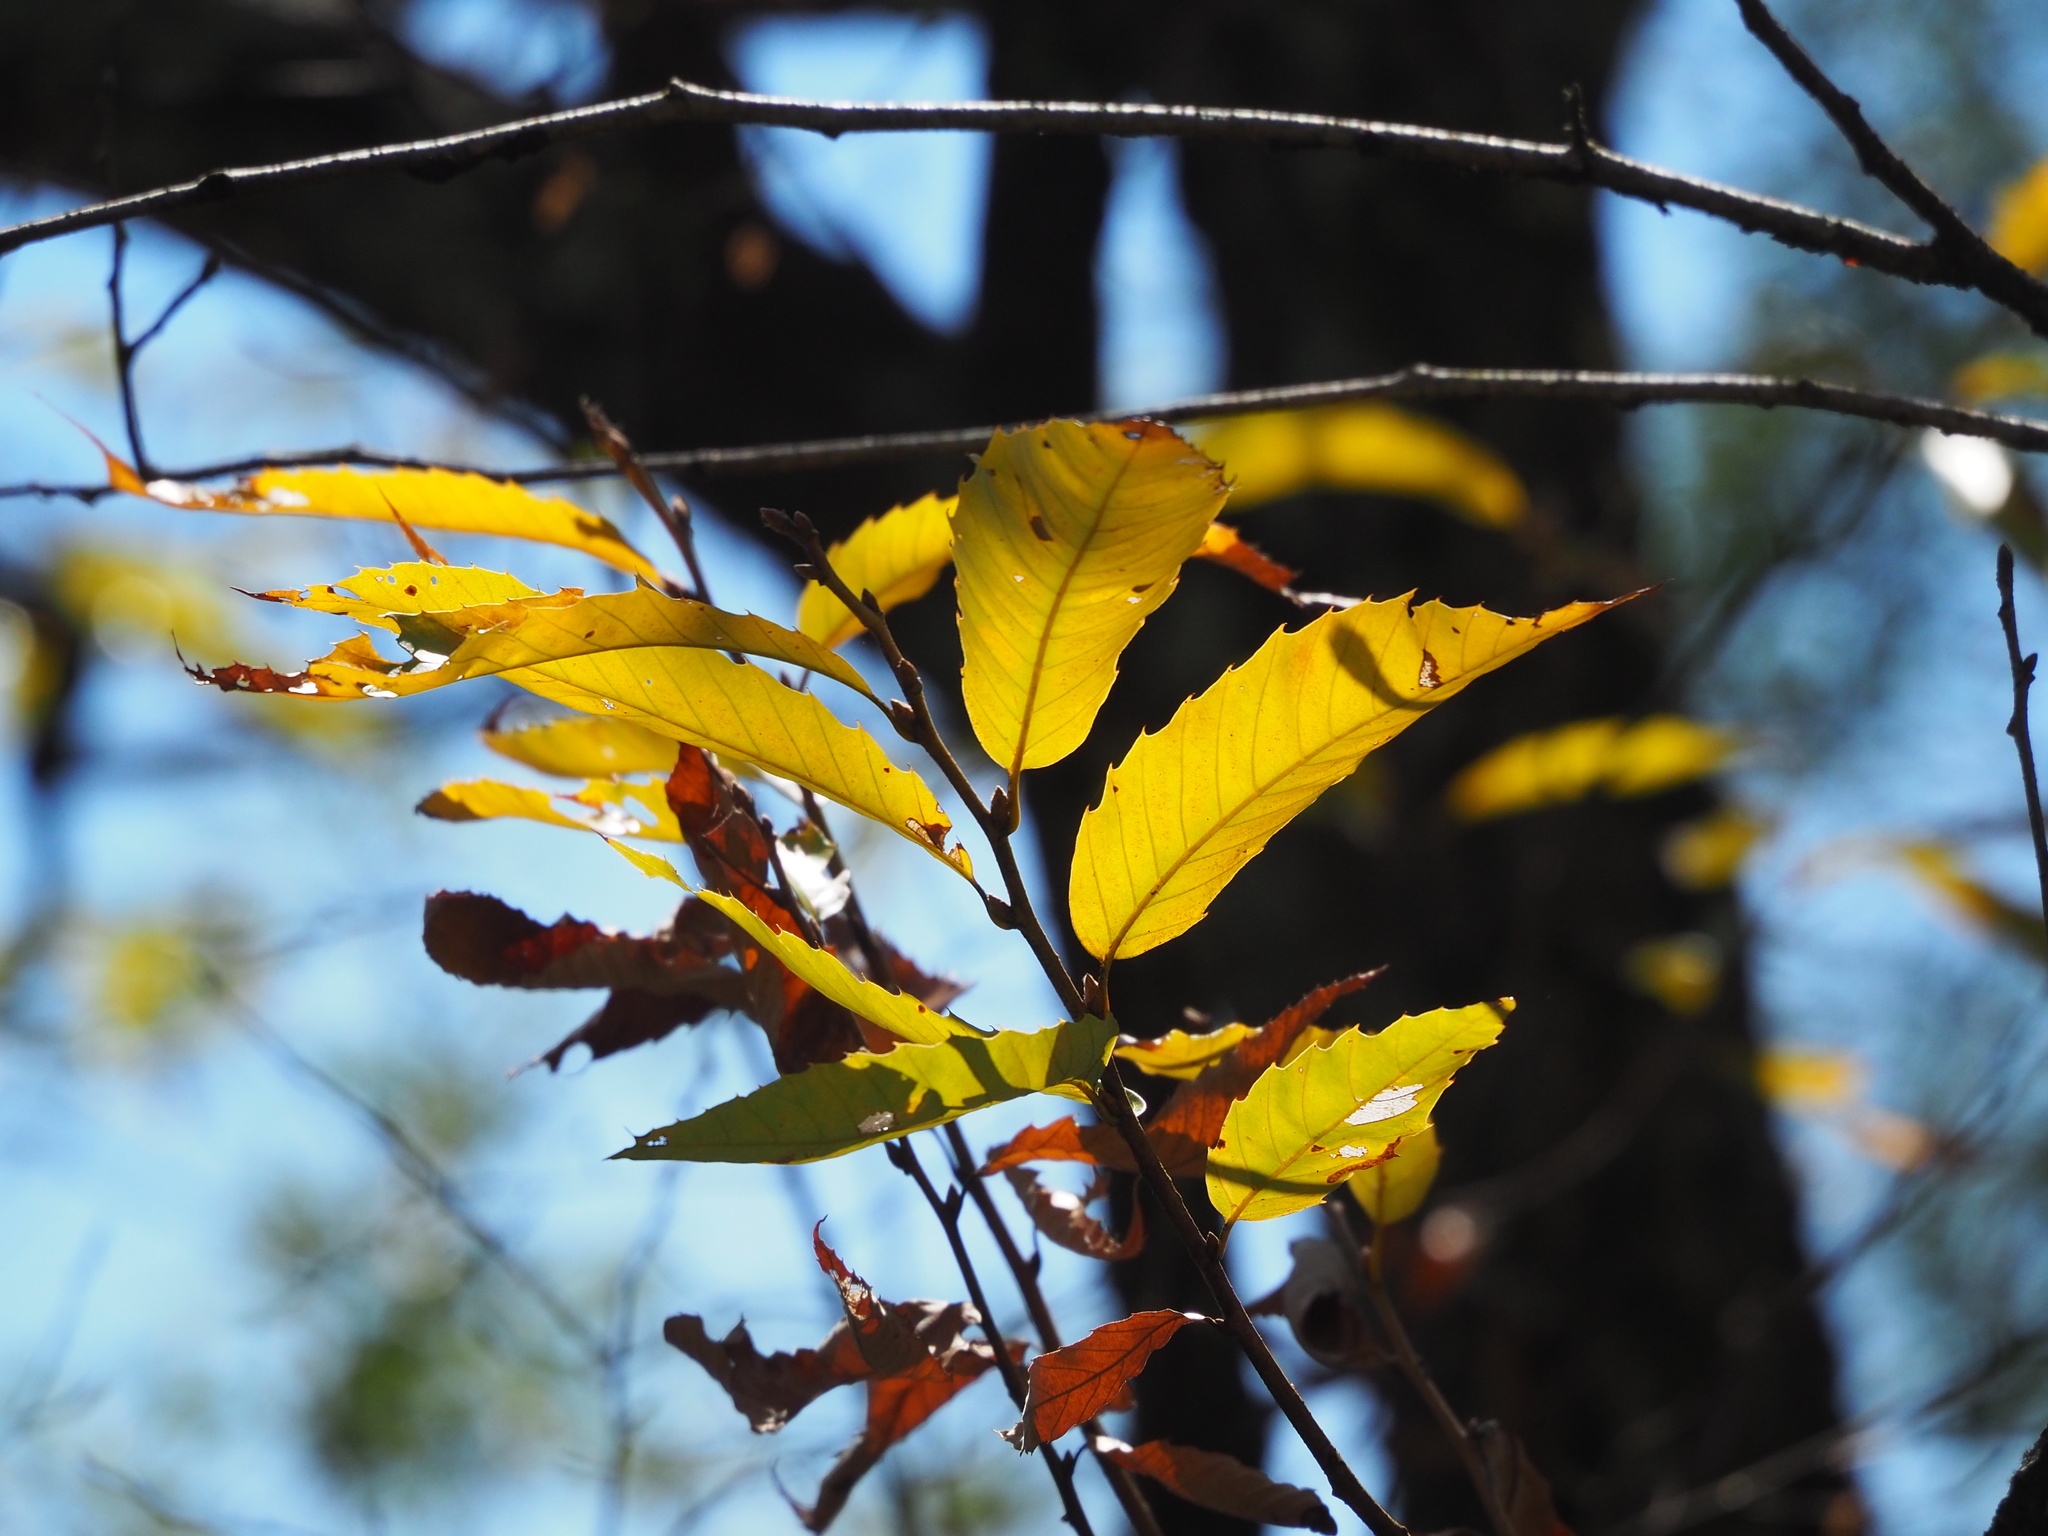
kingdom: Plantae
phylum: Tracheophyta
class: Magnoliopsida
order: Fagales
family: Fagaceae
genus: Quercus
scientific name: Quercus variabilis
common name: Chinese cork oak
